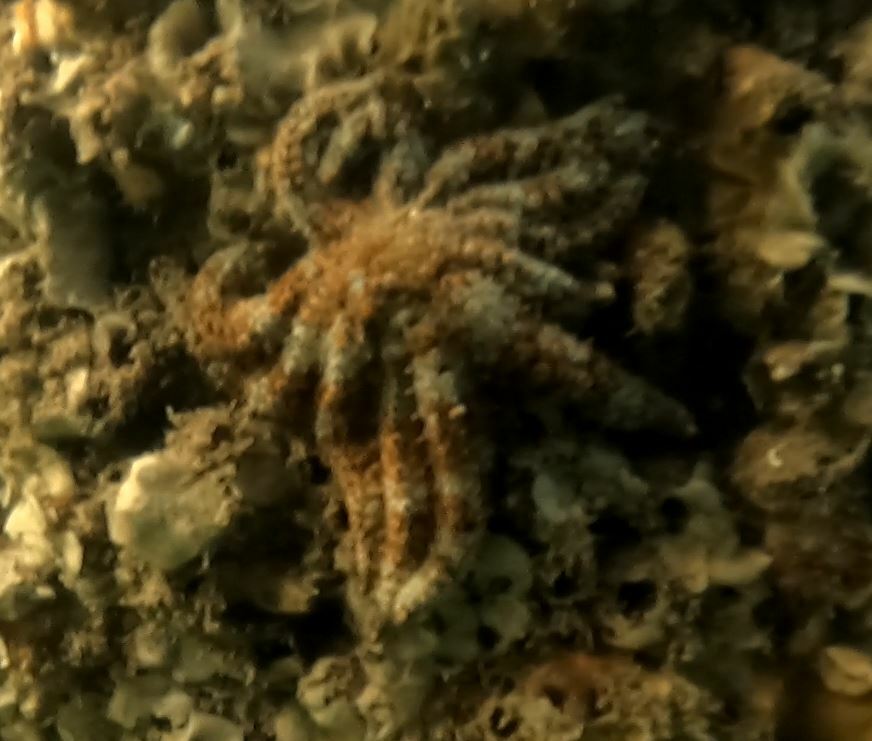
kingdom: Animalia
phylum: Echinodermata
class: Asteroidea
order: Forcipulatida
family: Asteriidae
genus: Coscinasterias
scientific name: Coscinasterias muricata
